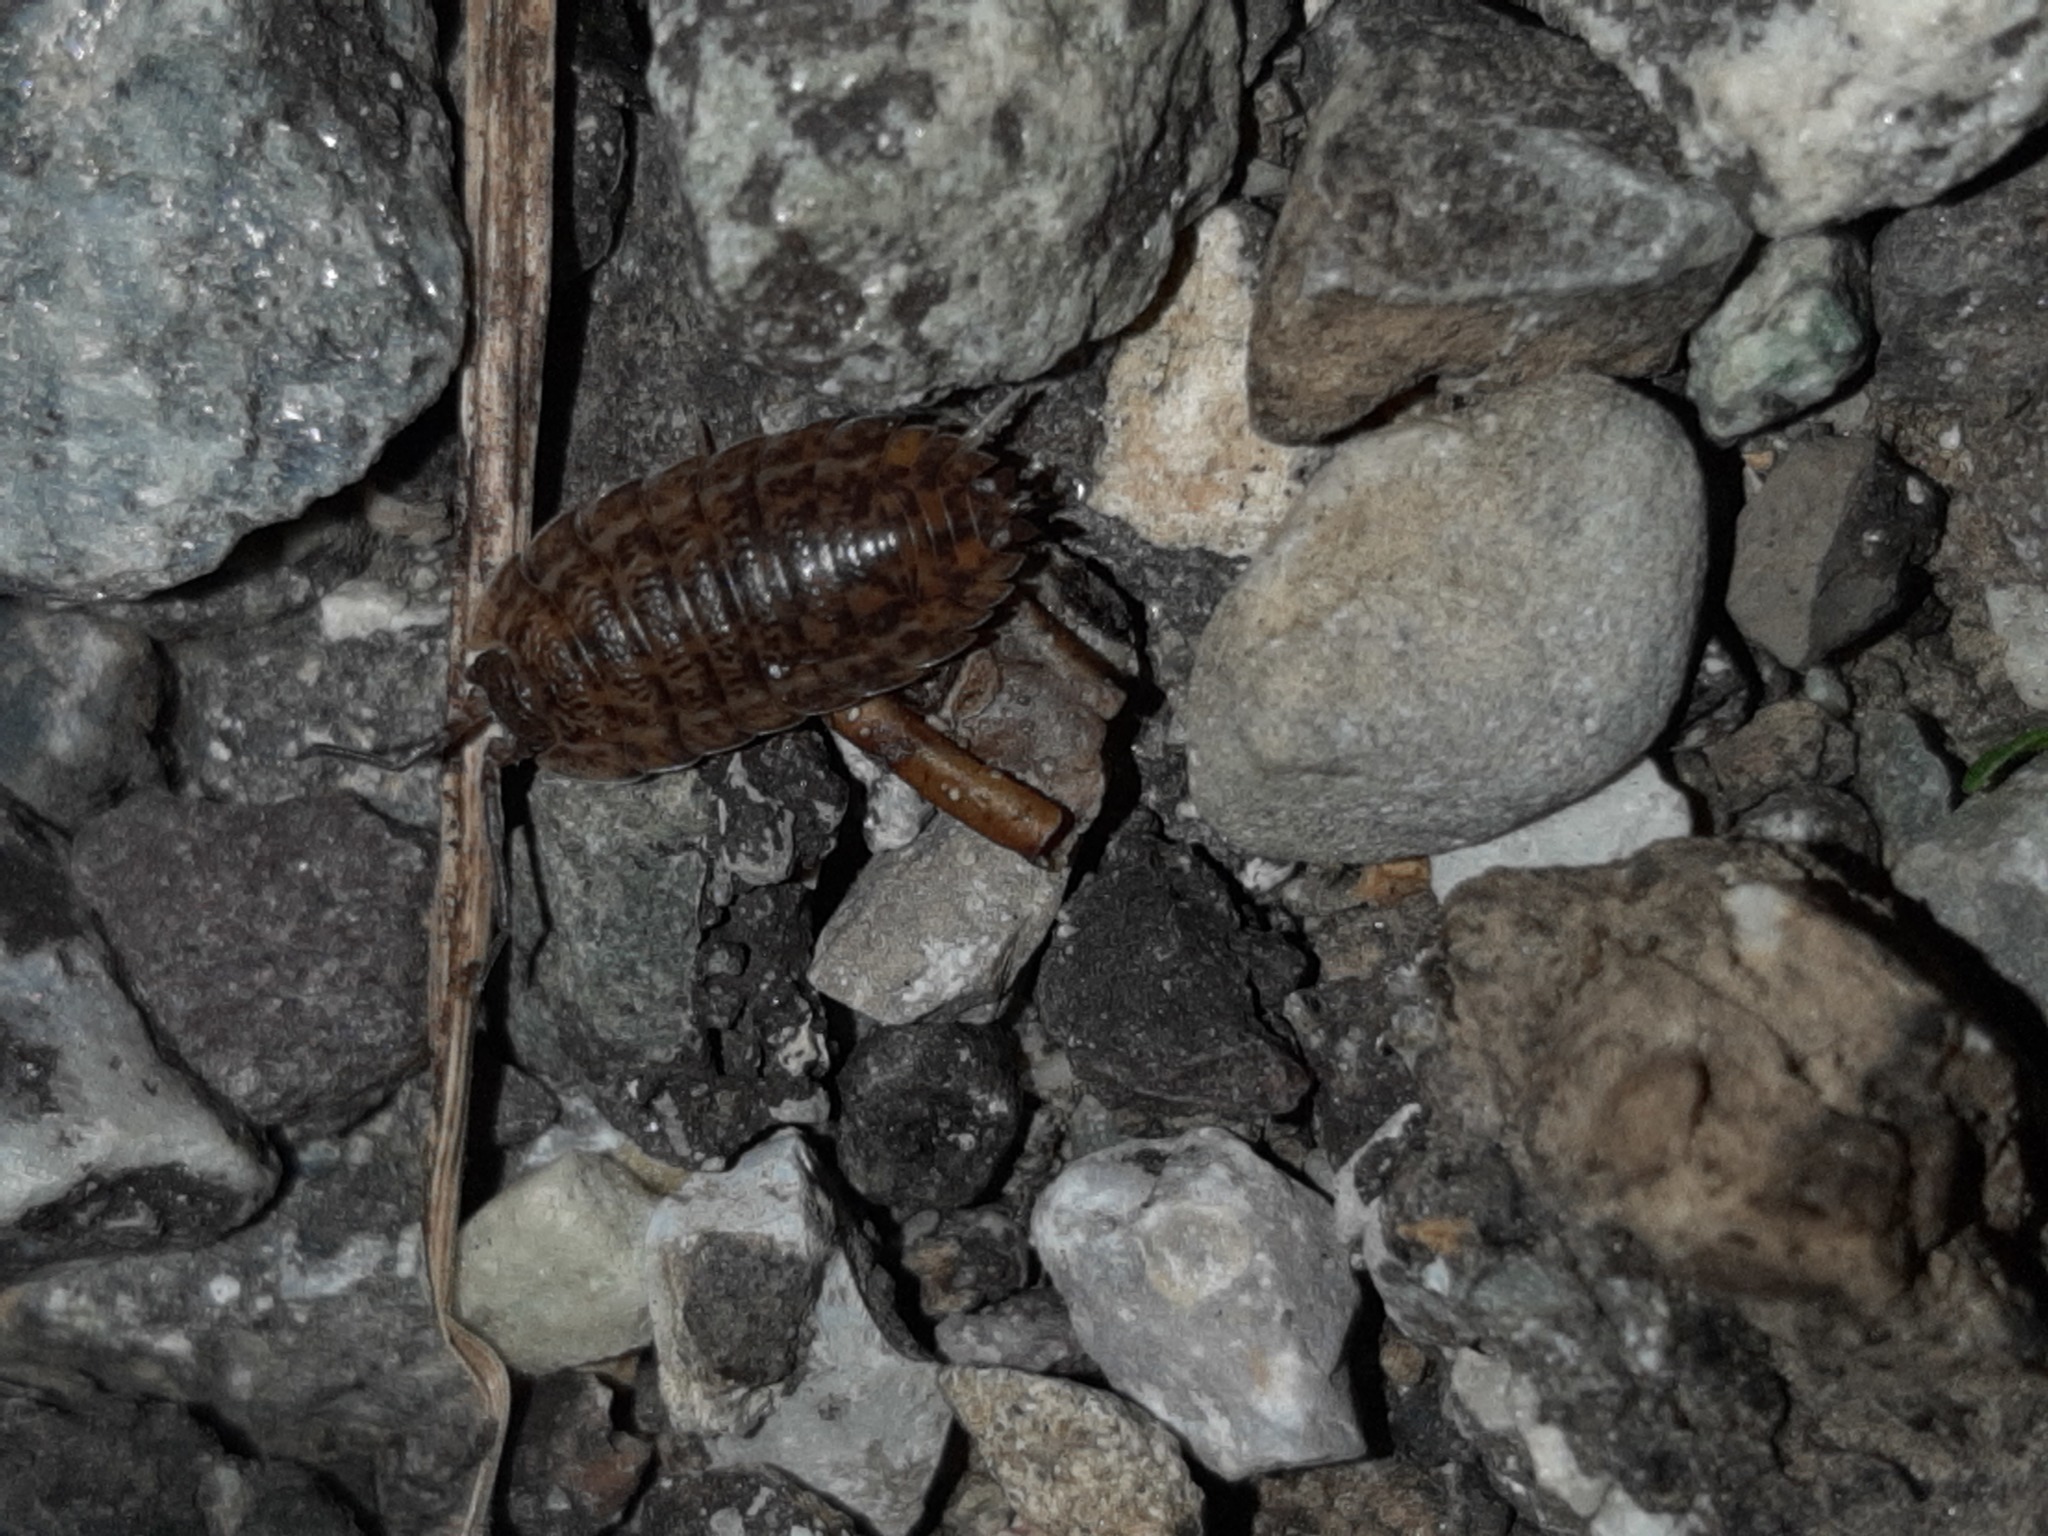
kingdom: Animalia
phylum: Arthropoda
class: Malacostraca
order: Isopoda
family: Trachelipodidae
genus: Trachelipus
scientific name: Trachelipus rathkii
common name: Isopod
